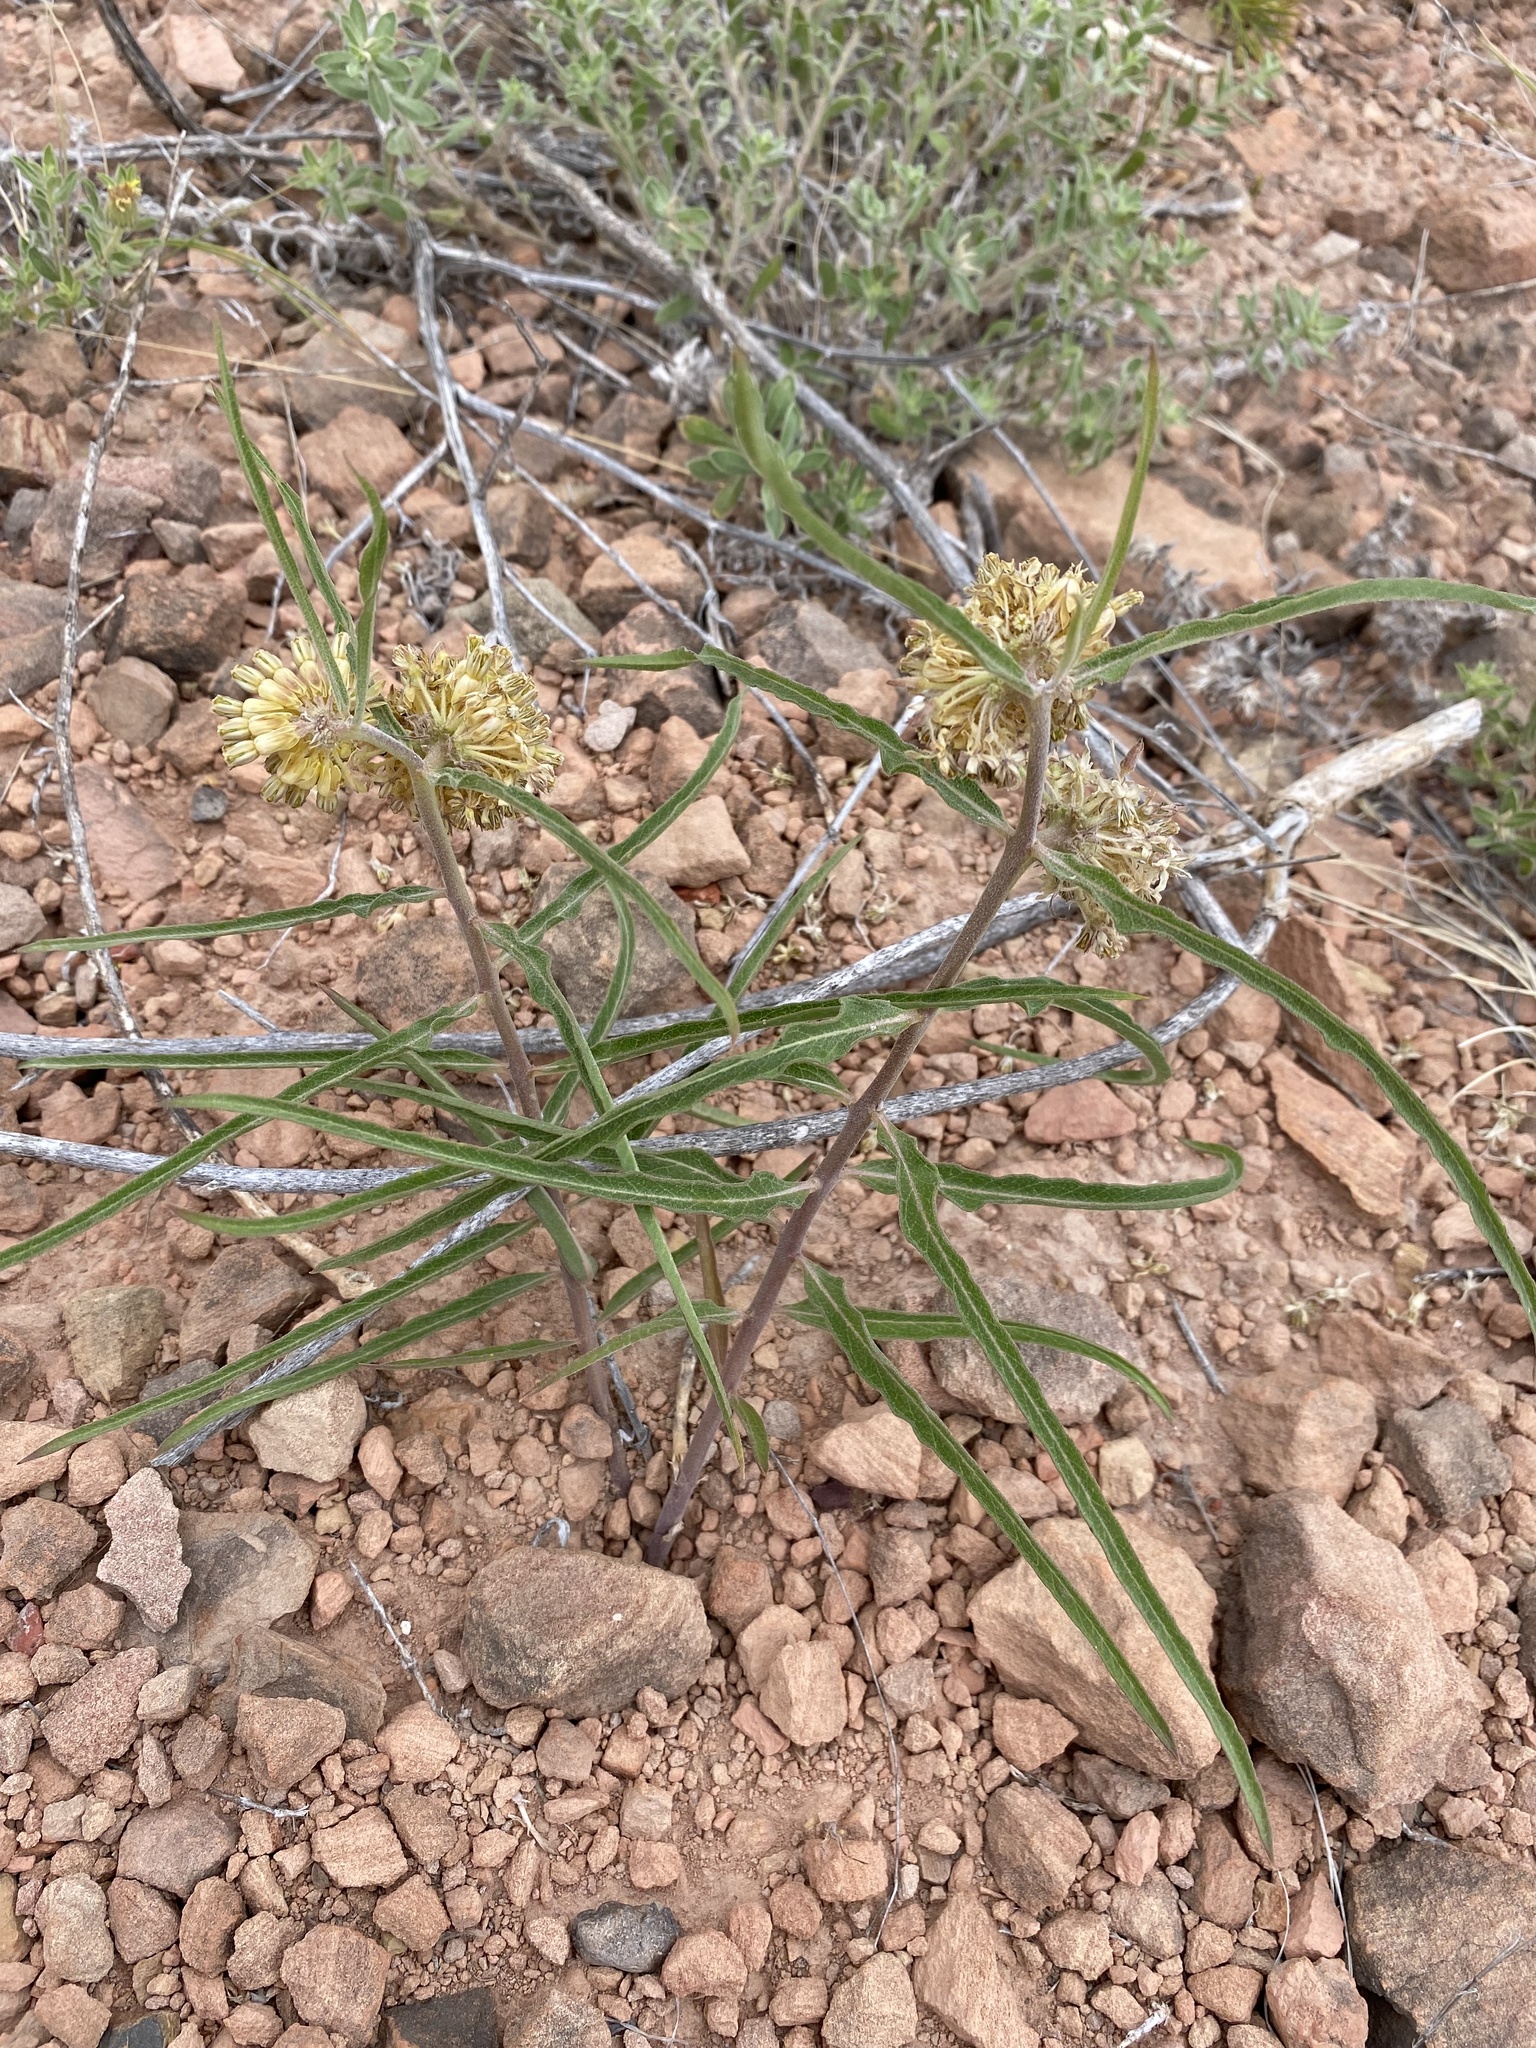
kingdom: Plantae
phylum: Tracheophyta
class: Magnoliopsida
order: Gentianales
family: Apocynaceae
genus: Asclepias
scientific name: Asclepias viridiflora
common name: Green comet milkweed
